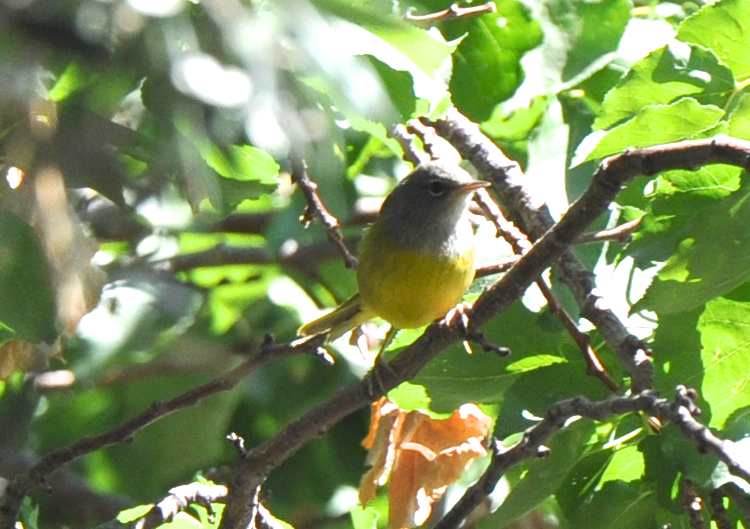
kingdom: Animalia
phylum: Chordata
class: Aves
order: Passeriformes
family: Parulidae
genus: Geothlypis
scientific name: Geothlypis tolmiei
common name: Macgillivray's warbler
